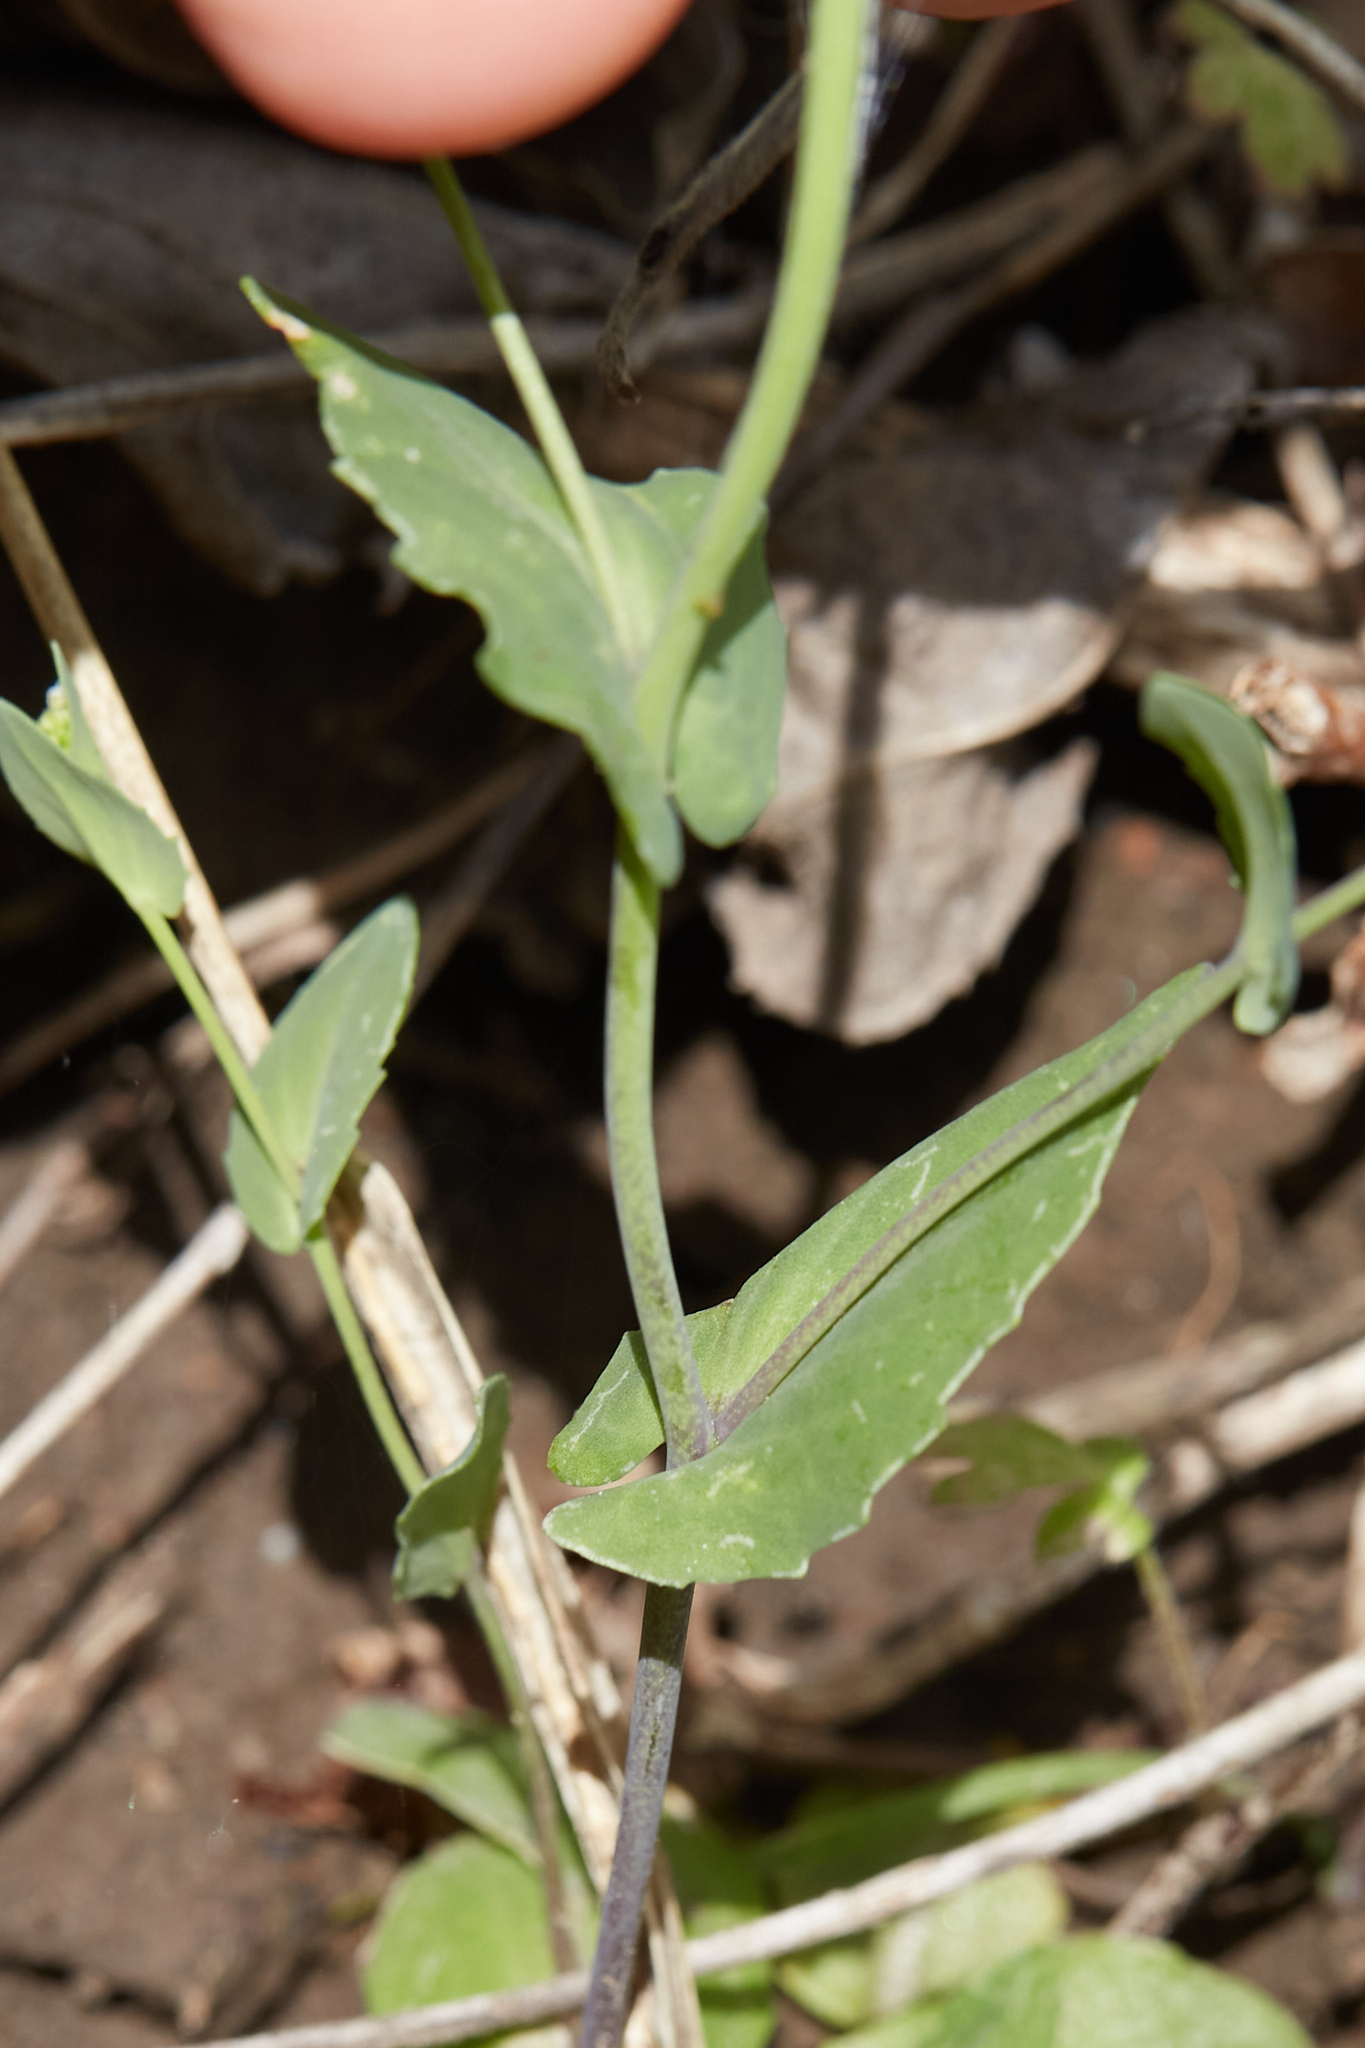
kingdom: Plantae
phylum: Tracheophyta
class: Magnoliopsida
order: Brassicales
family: Brassicaceae
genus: Noccaea
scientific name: Noccaea perfoliata
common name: Perfoliate pennycress
